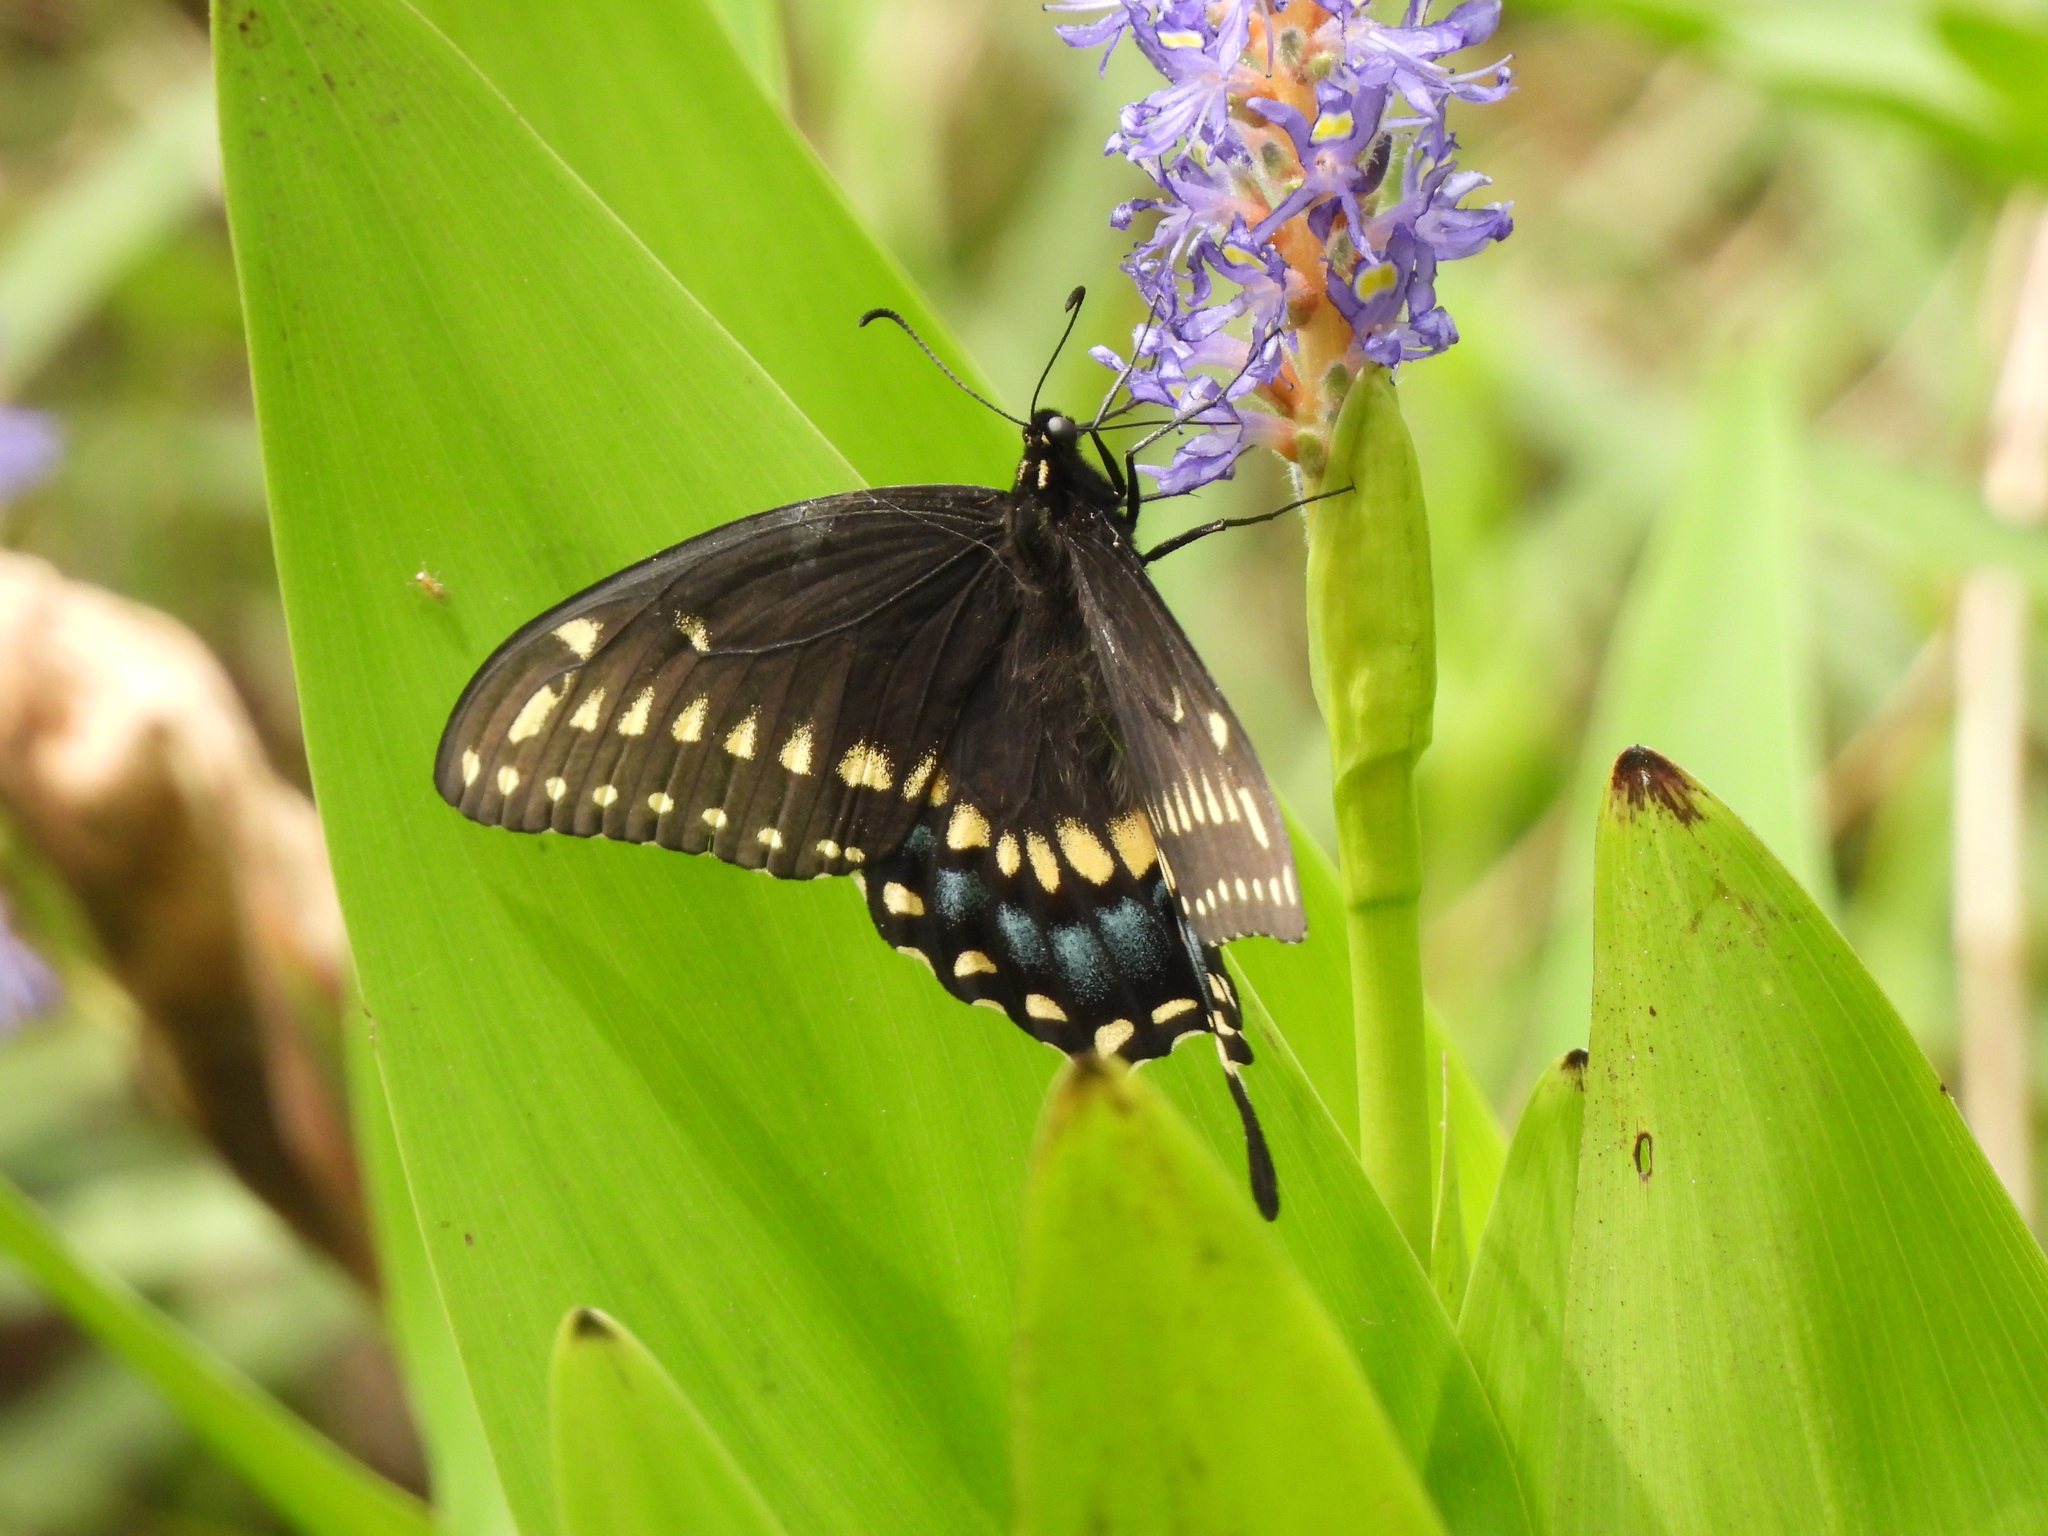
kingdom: Animalia
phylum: Arthropoda
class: Insecta
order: Lepidoptera
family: Papilionidae
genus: Papilio
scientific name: Papilio polyxenes
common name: Black swallowtail
